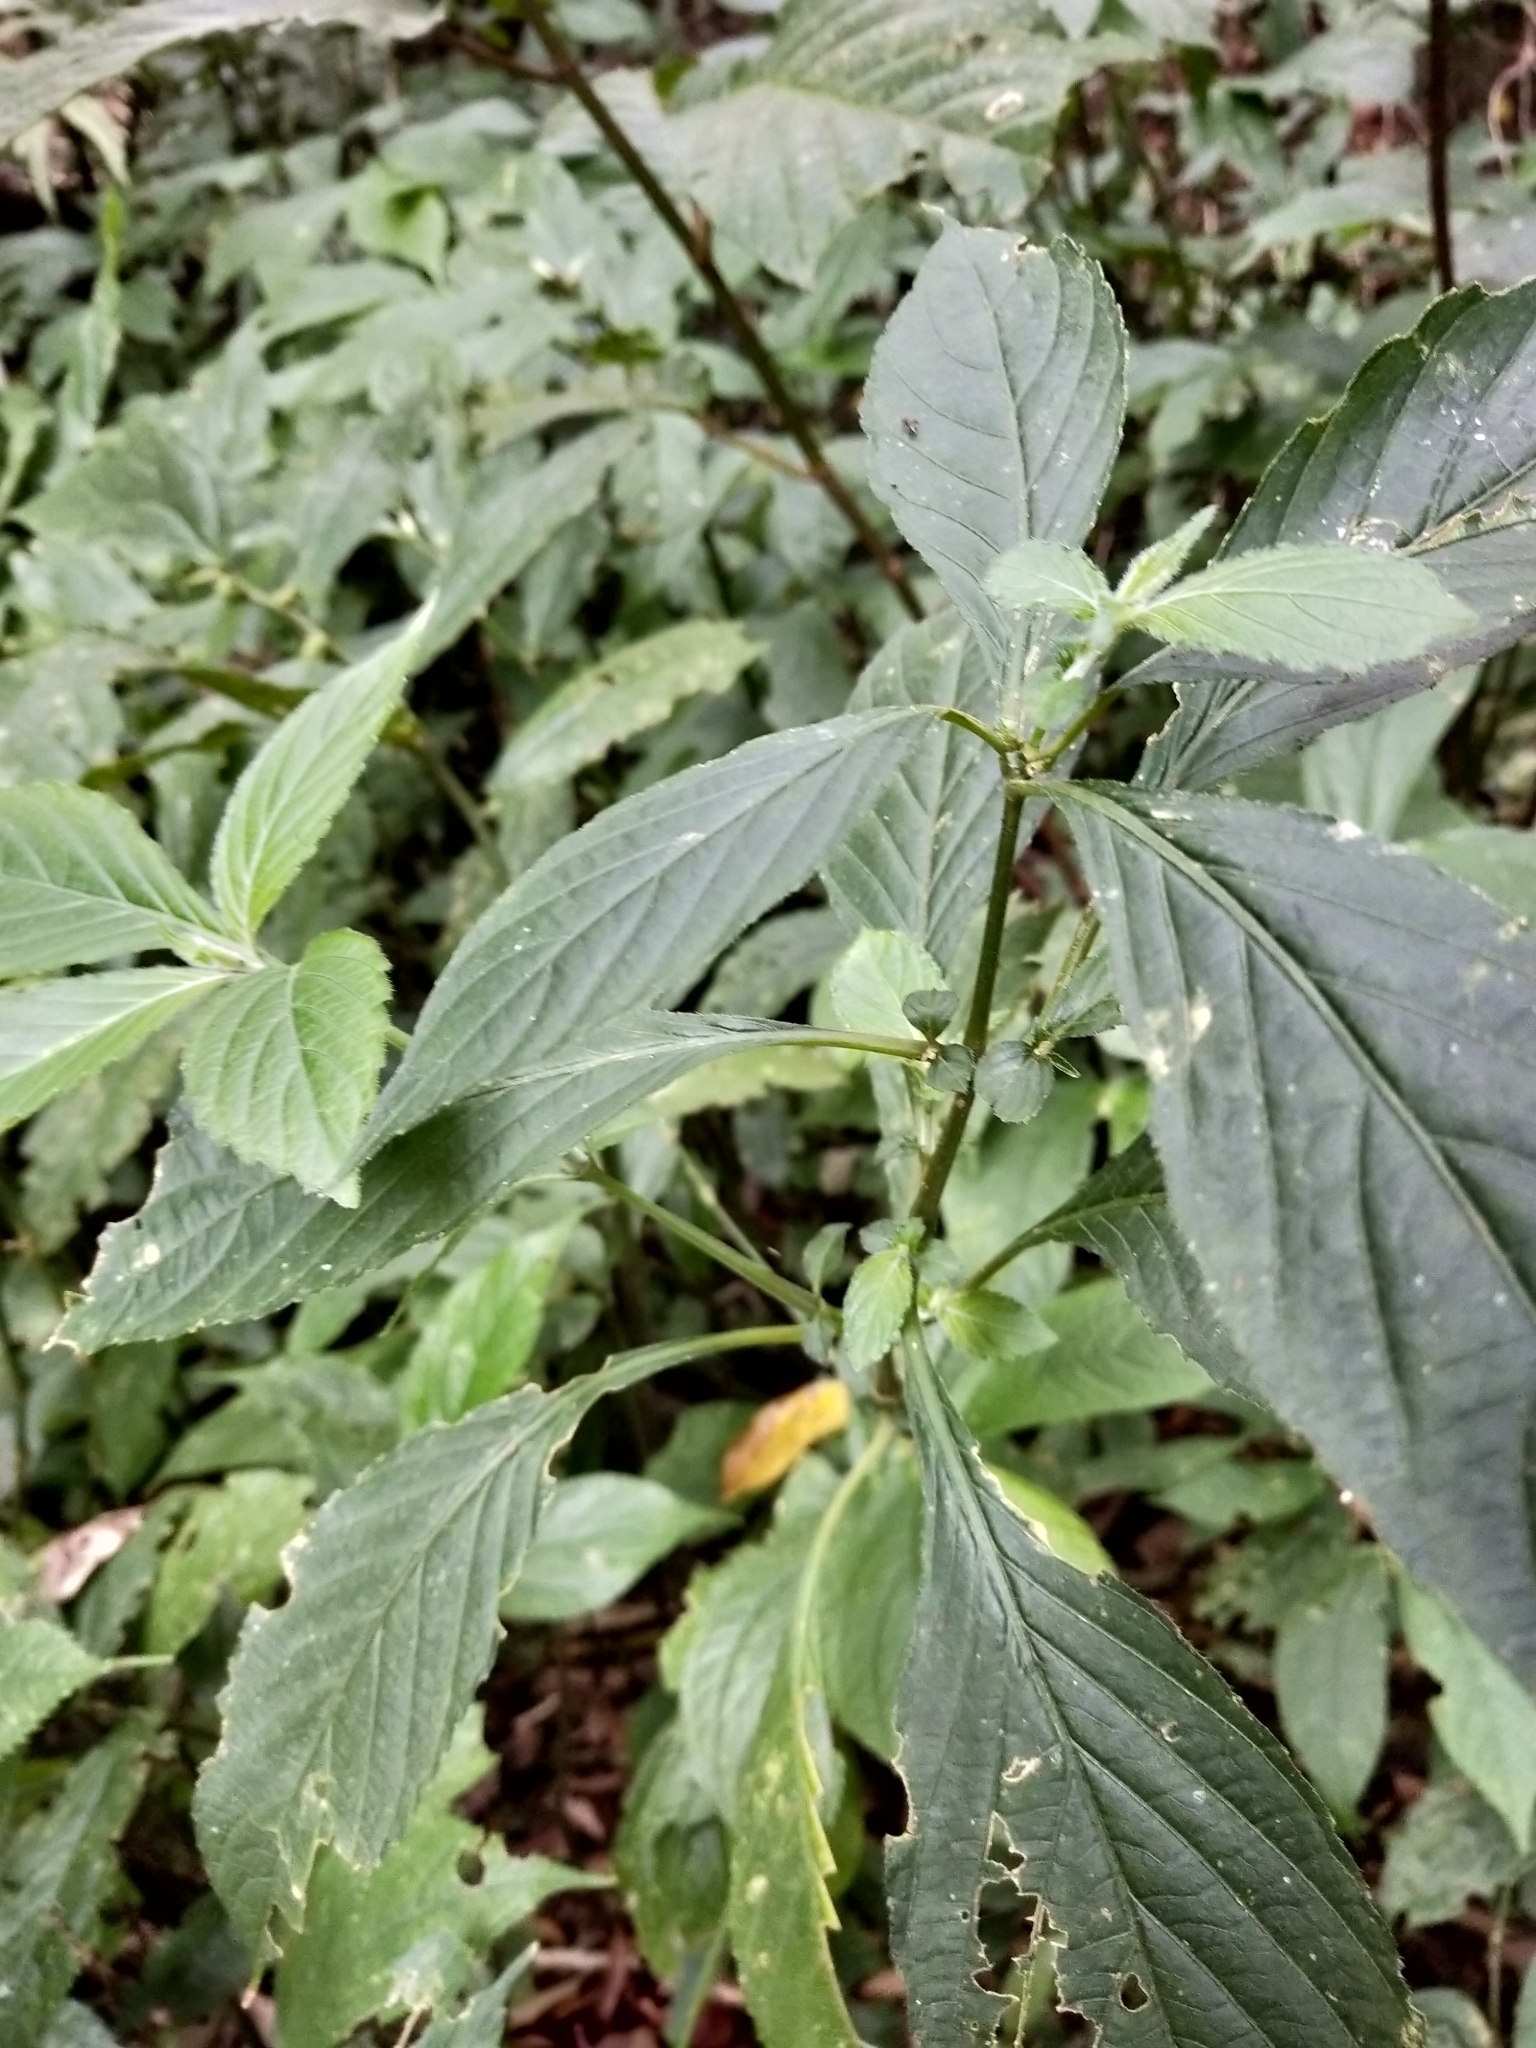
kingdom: Plantae
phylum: Tracheophyta
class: Magnoliopsida
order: Lamiales
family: Acanthaceae
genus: Strobilanthes
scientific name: Strobilanthes formosana
